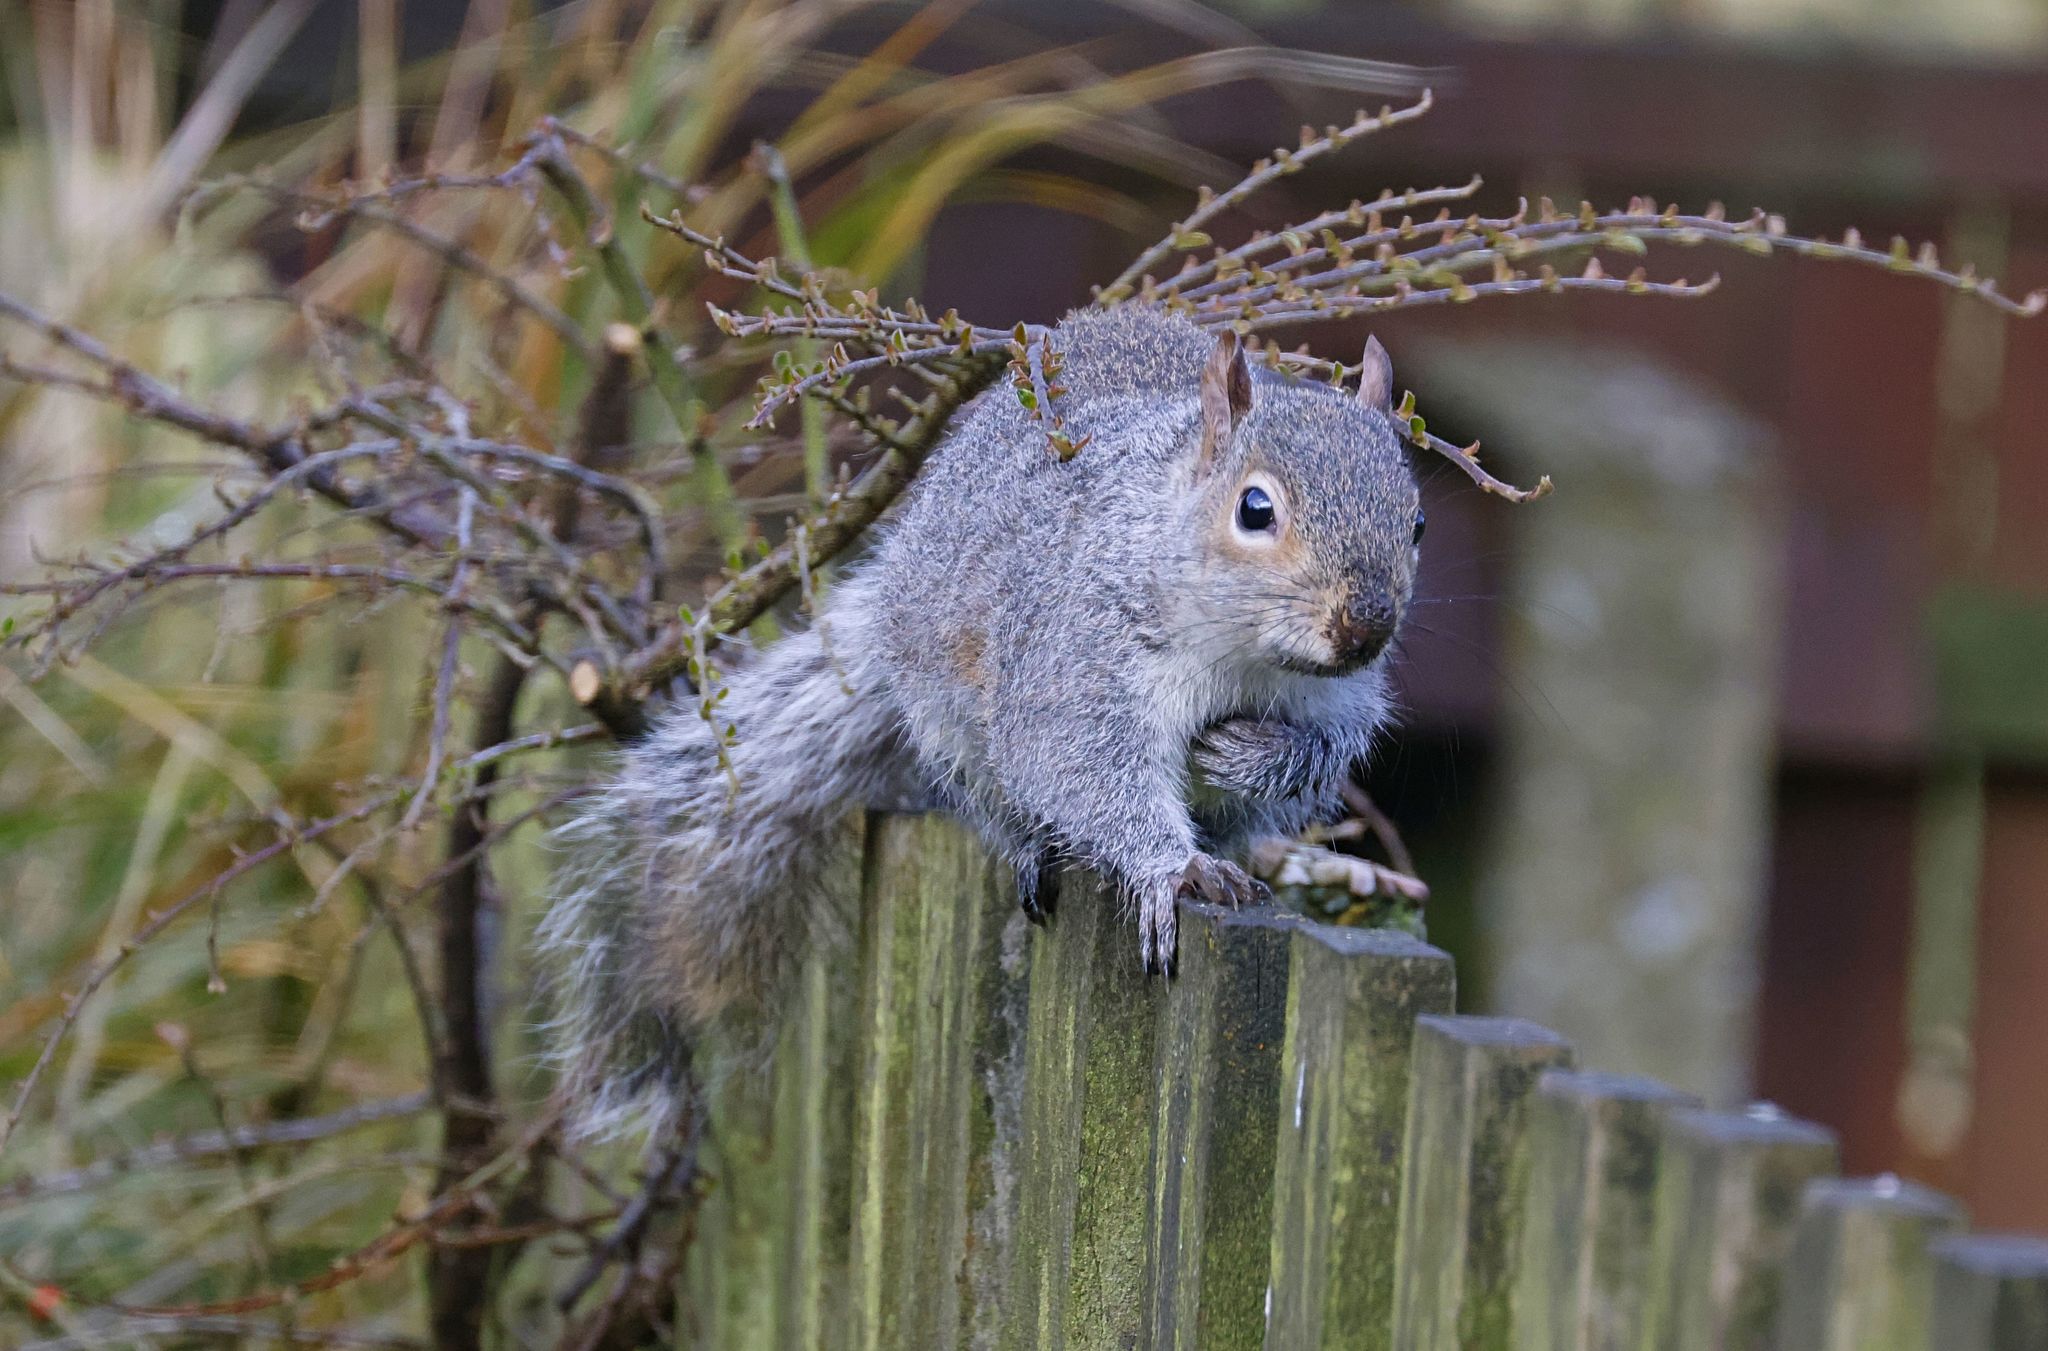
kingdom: Animalia
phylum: Chordata
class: Mammalia
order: Rodentia
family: Sciuridae
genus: Sciurus
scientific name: Sciurus carolinensis
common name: Eastern gray squirrel
